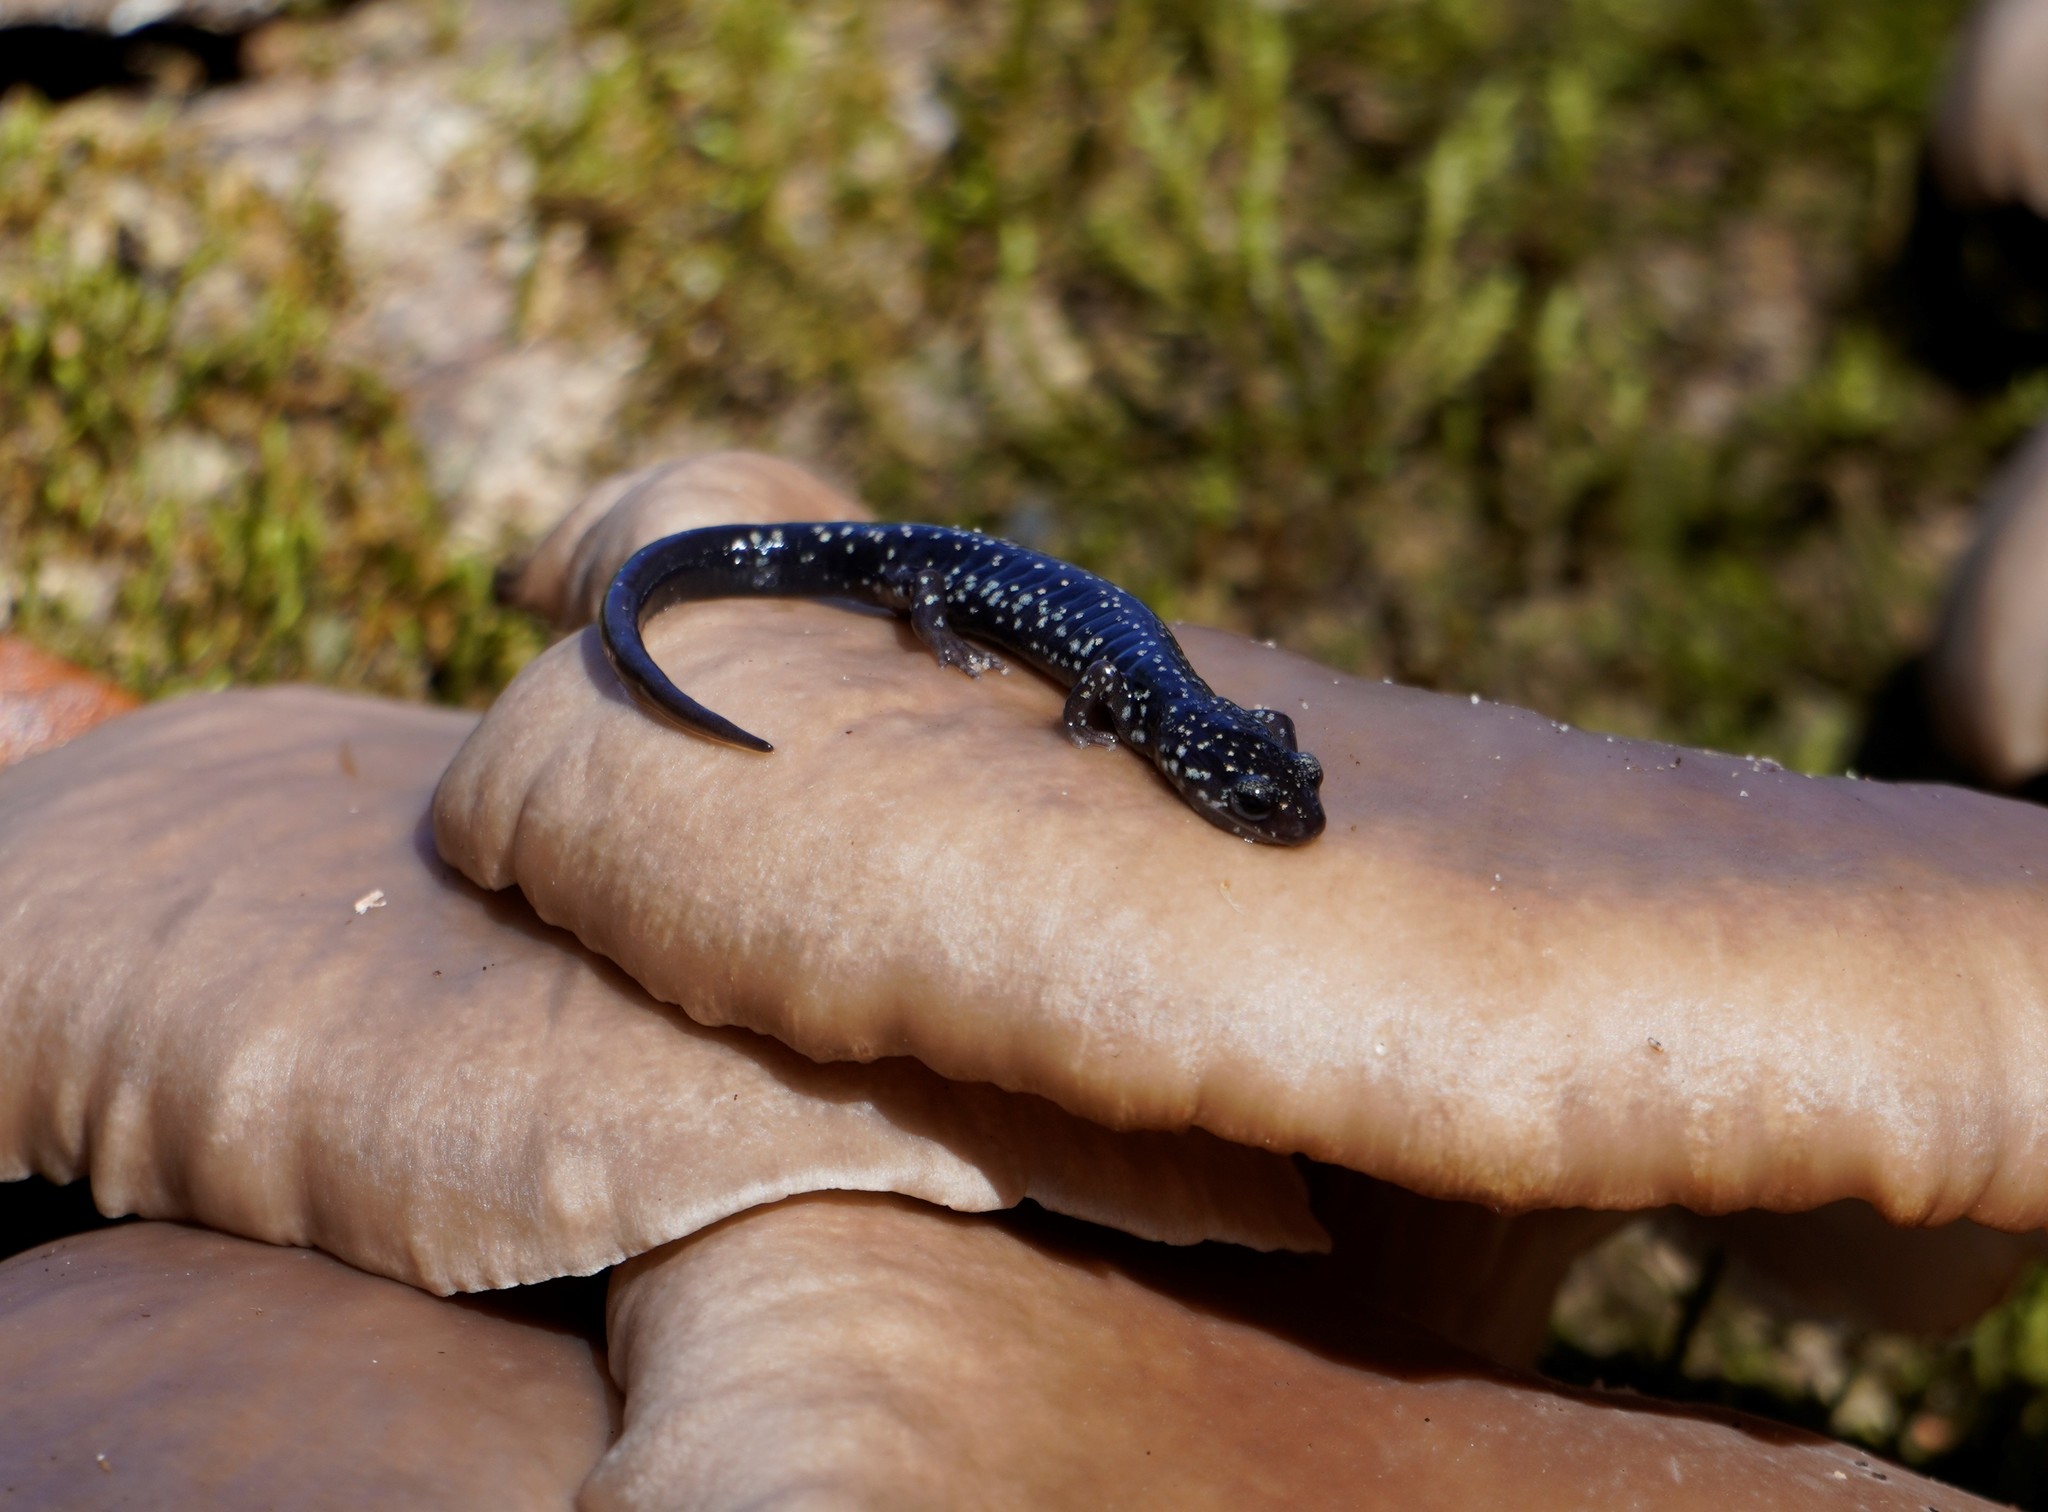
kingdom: Animalia
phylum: Chordata
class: Amphibia
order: Caudata
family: Plethodontidae
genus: Plethodon
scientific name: Plethodon mississippi
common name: Mississippi slimy salamander
